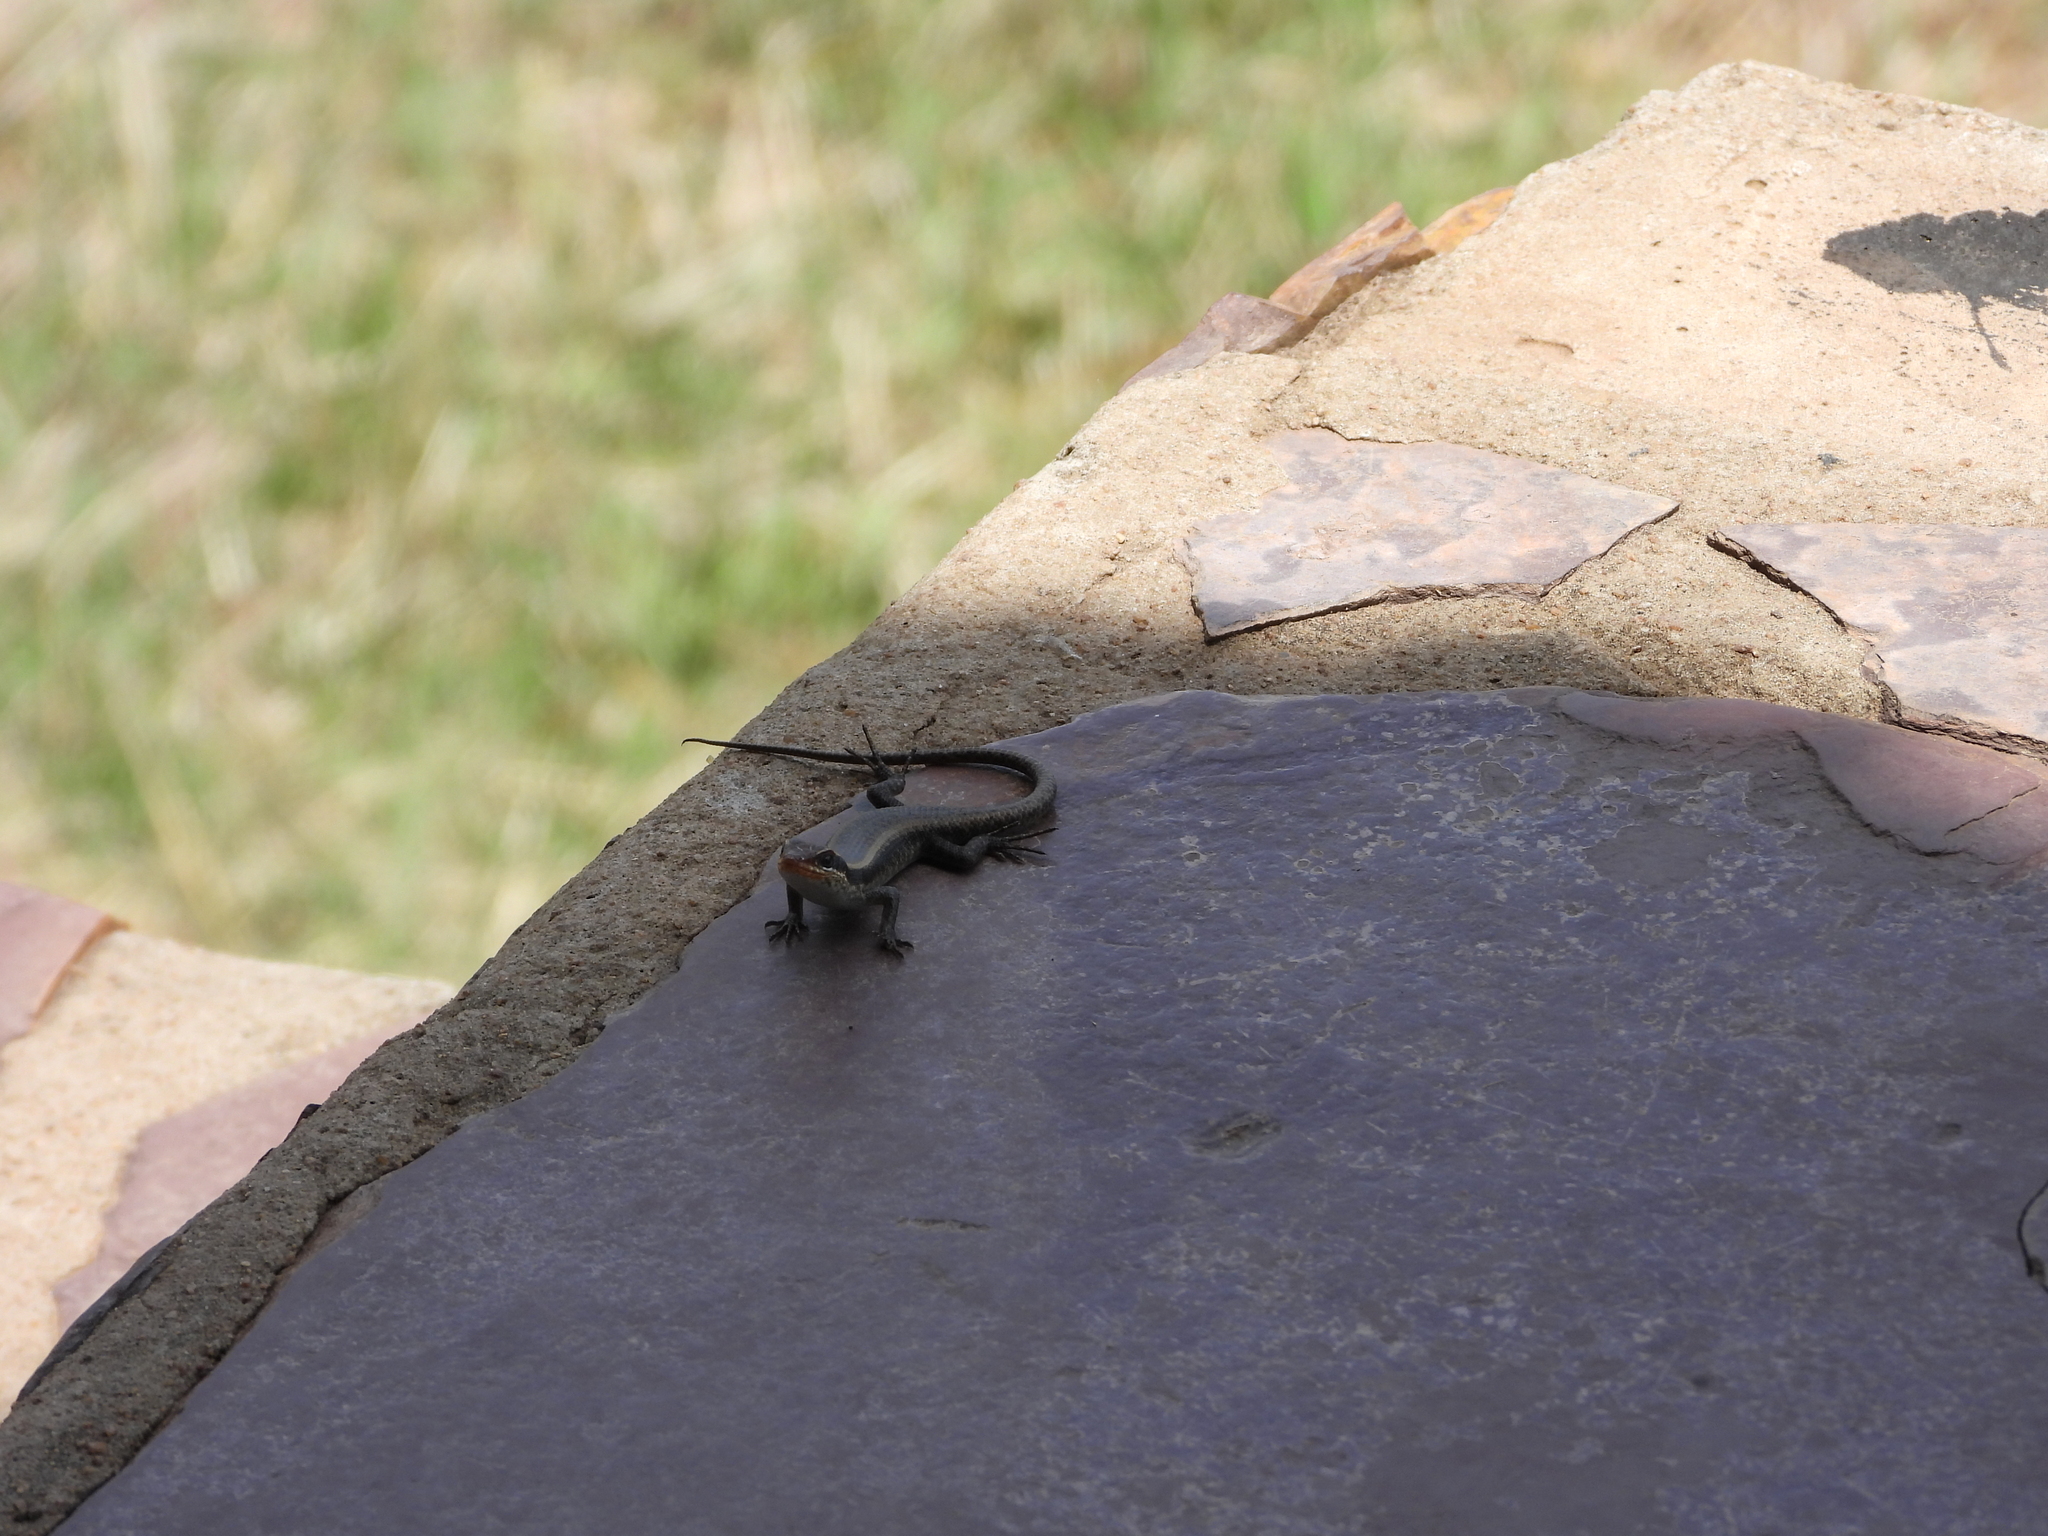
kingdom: Animalia
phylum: Chordata
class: Squamata
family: Scincidae
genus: Trachylepis
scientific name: Trachylepis wahlbergii
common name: Wahlberg’s striped skink
